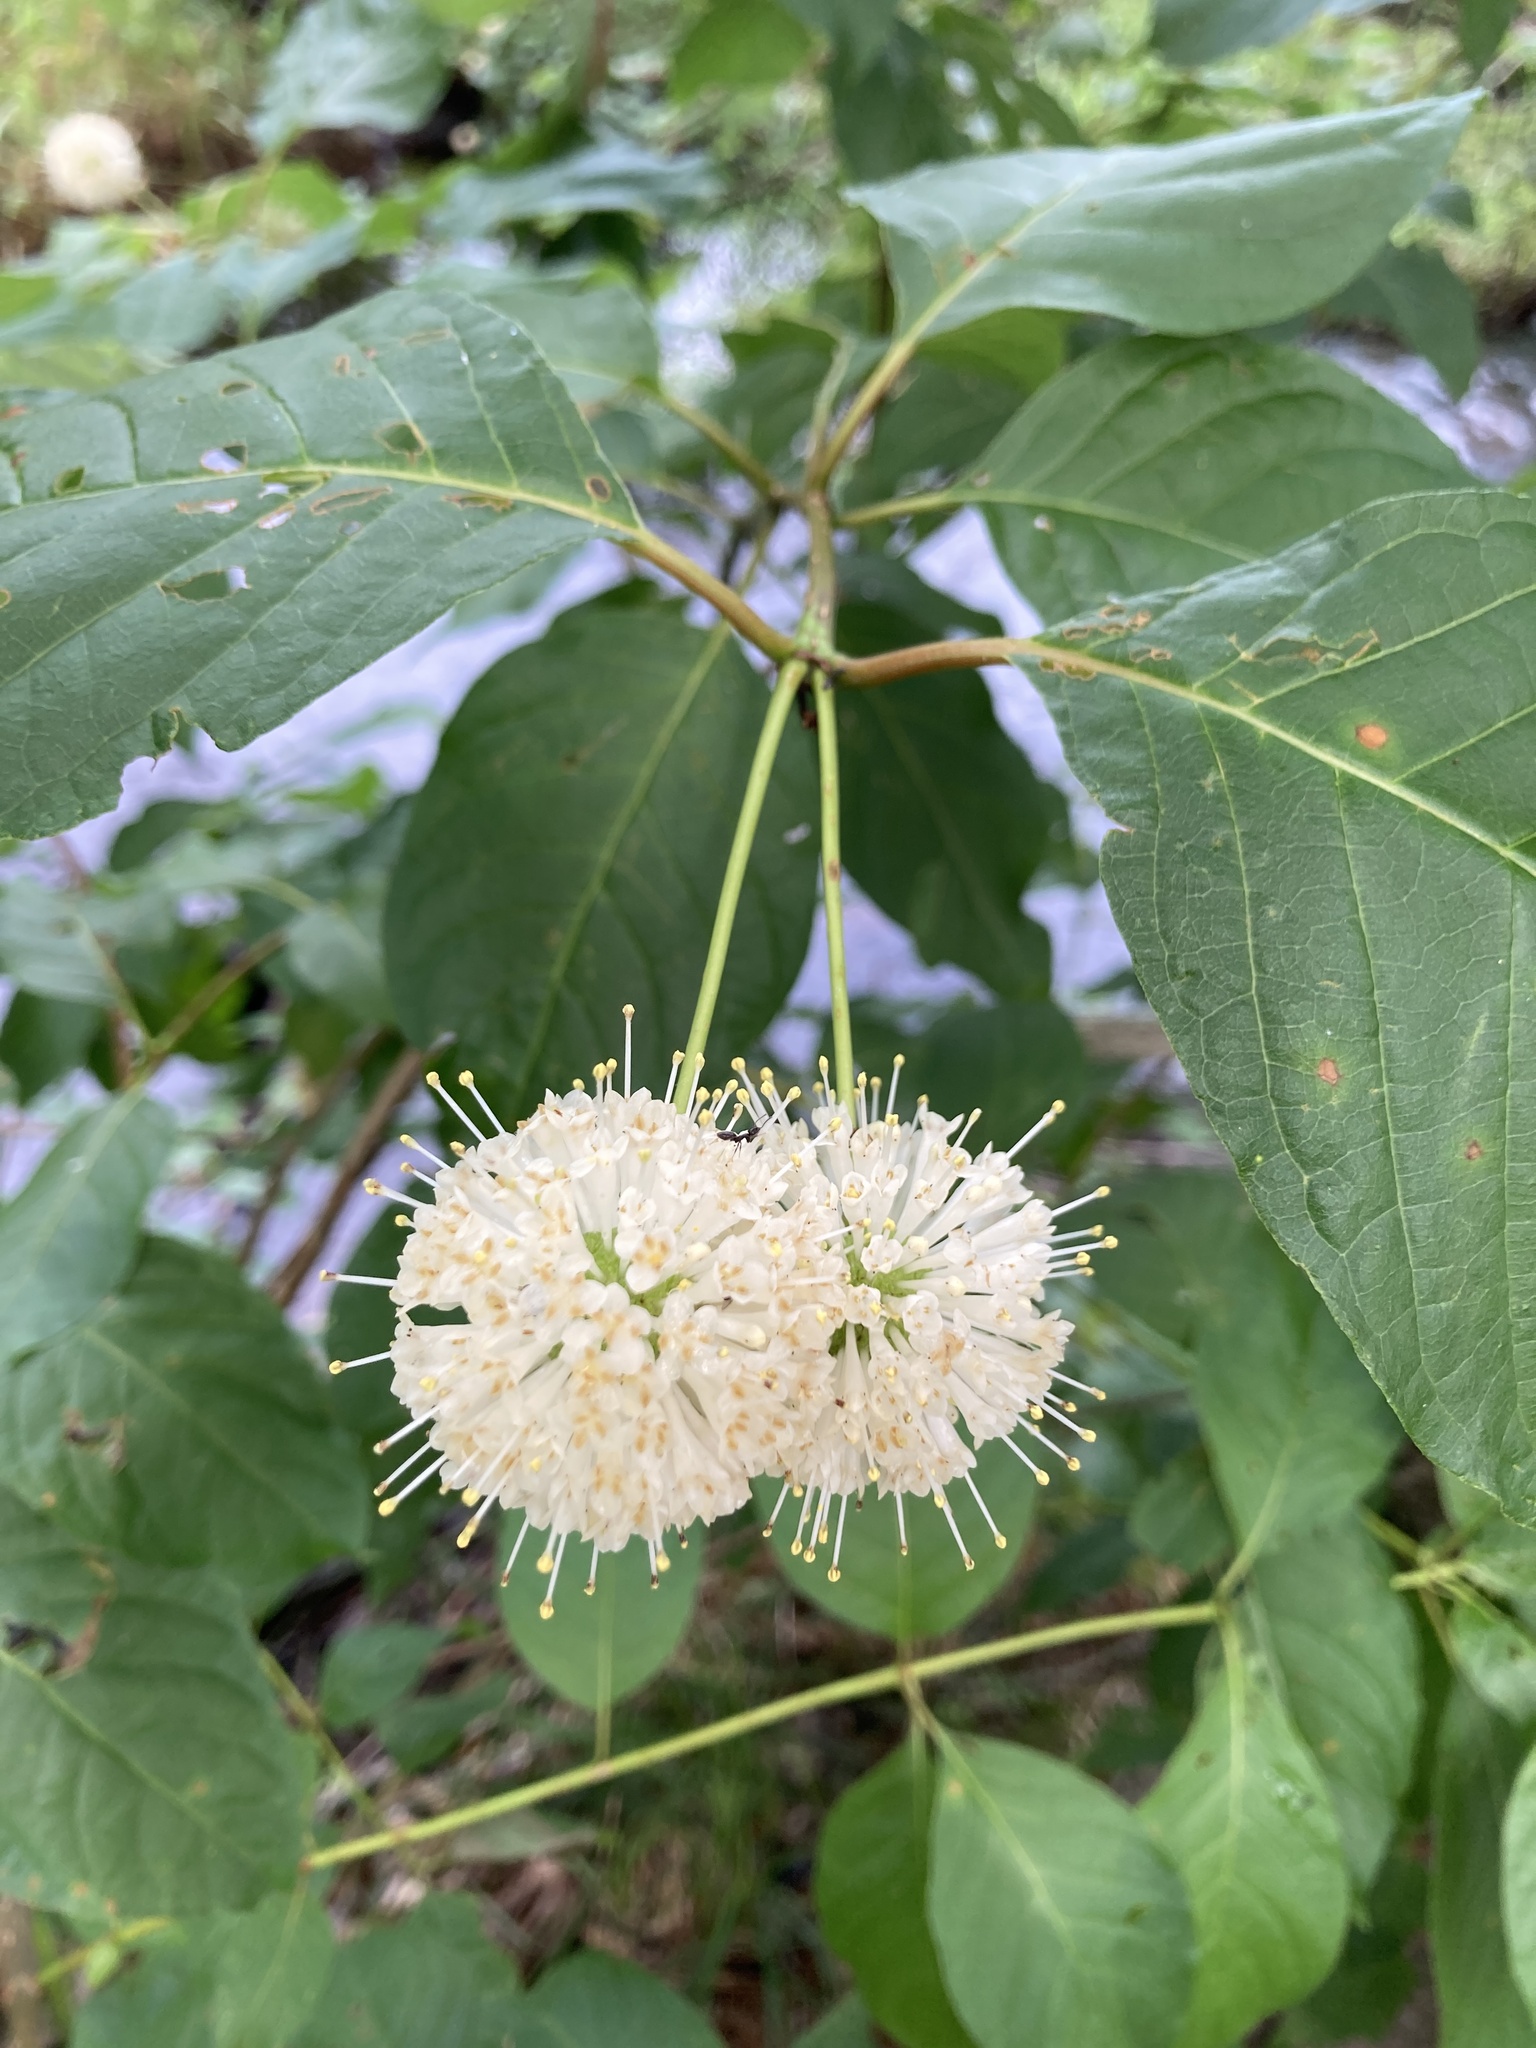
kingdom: Plantae
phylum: Tracheophyta
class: Magnoliopsida
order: Gentianales
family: Rubiaceae
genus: Cephalanthus
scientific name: Cephalanthus occidentalis
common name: Button-willow
